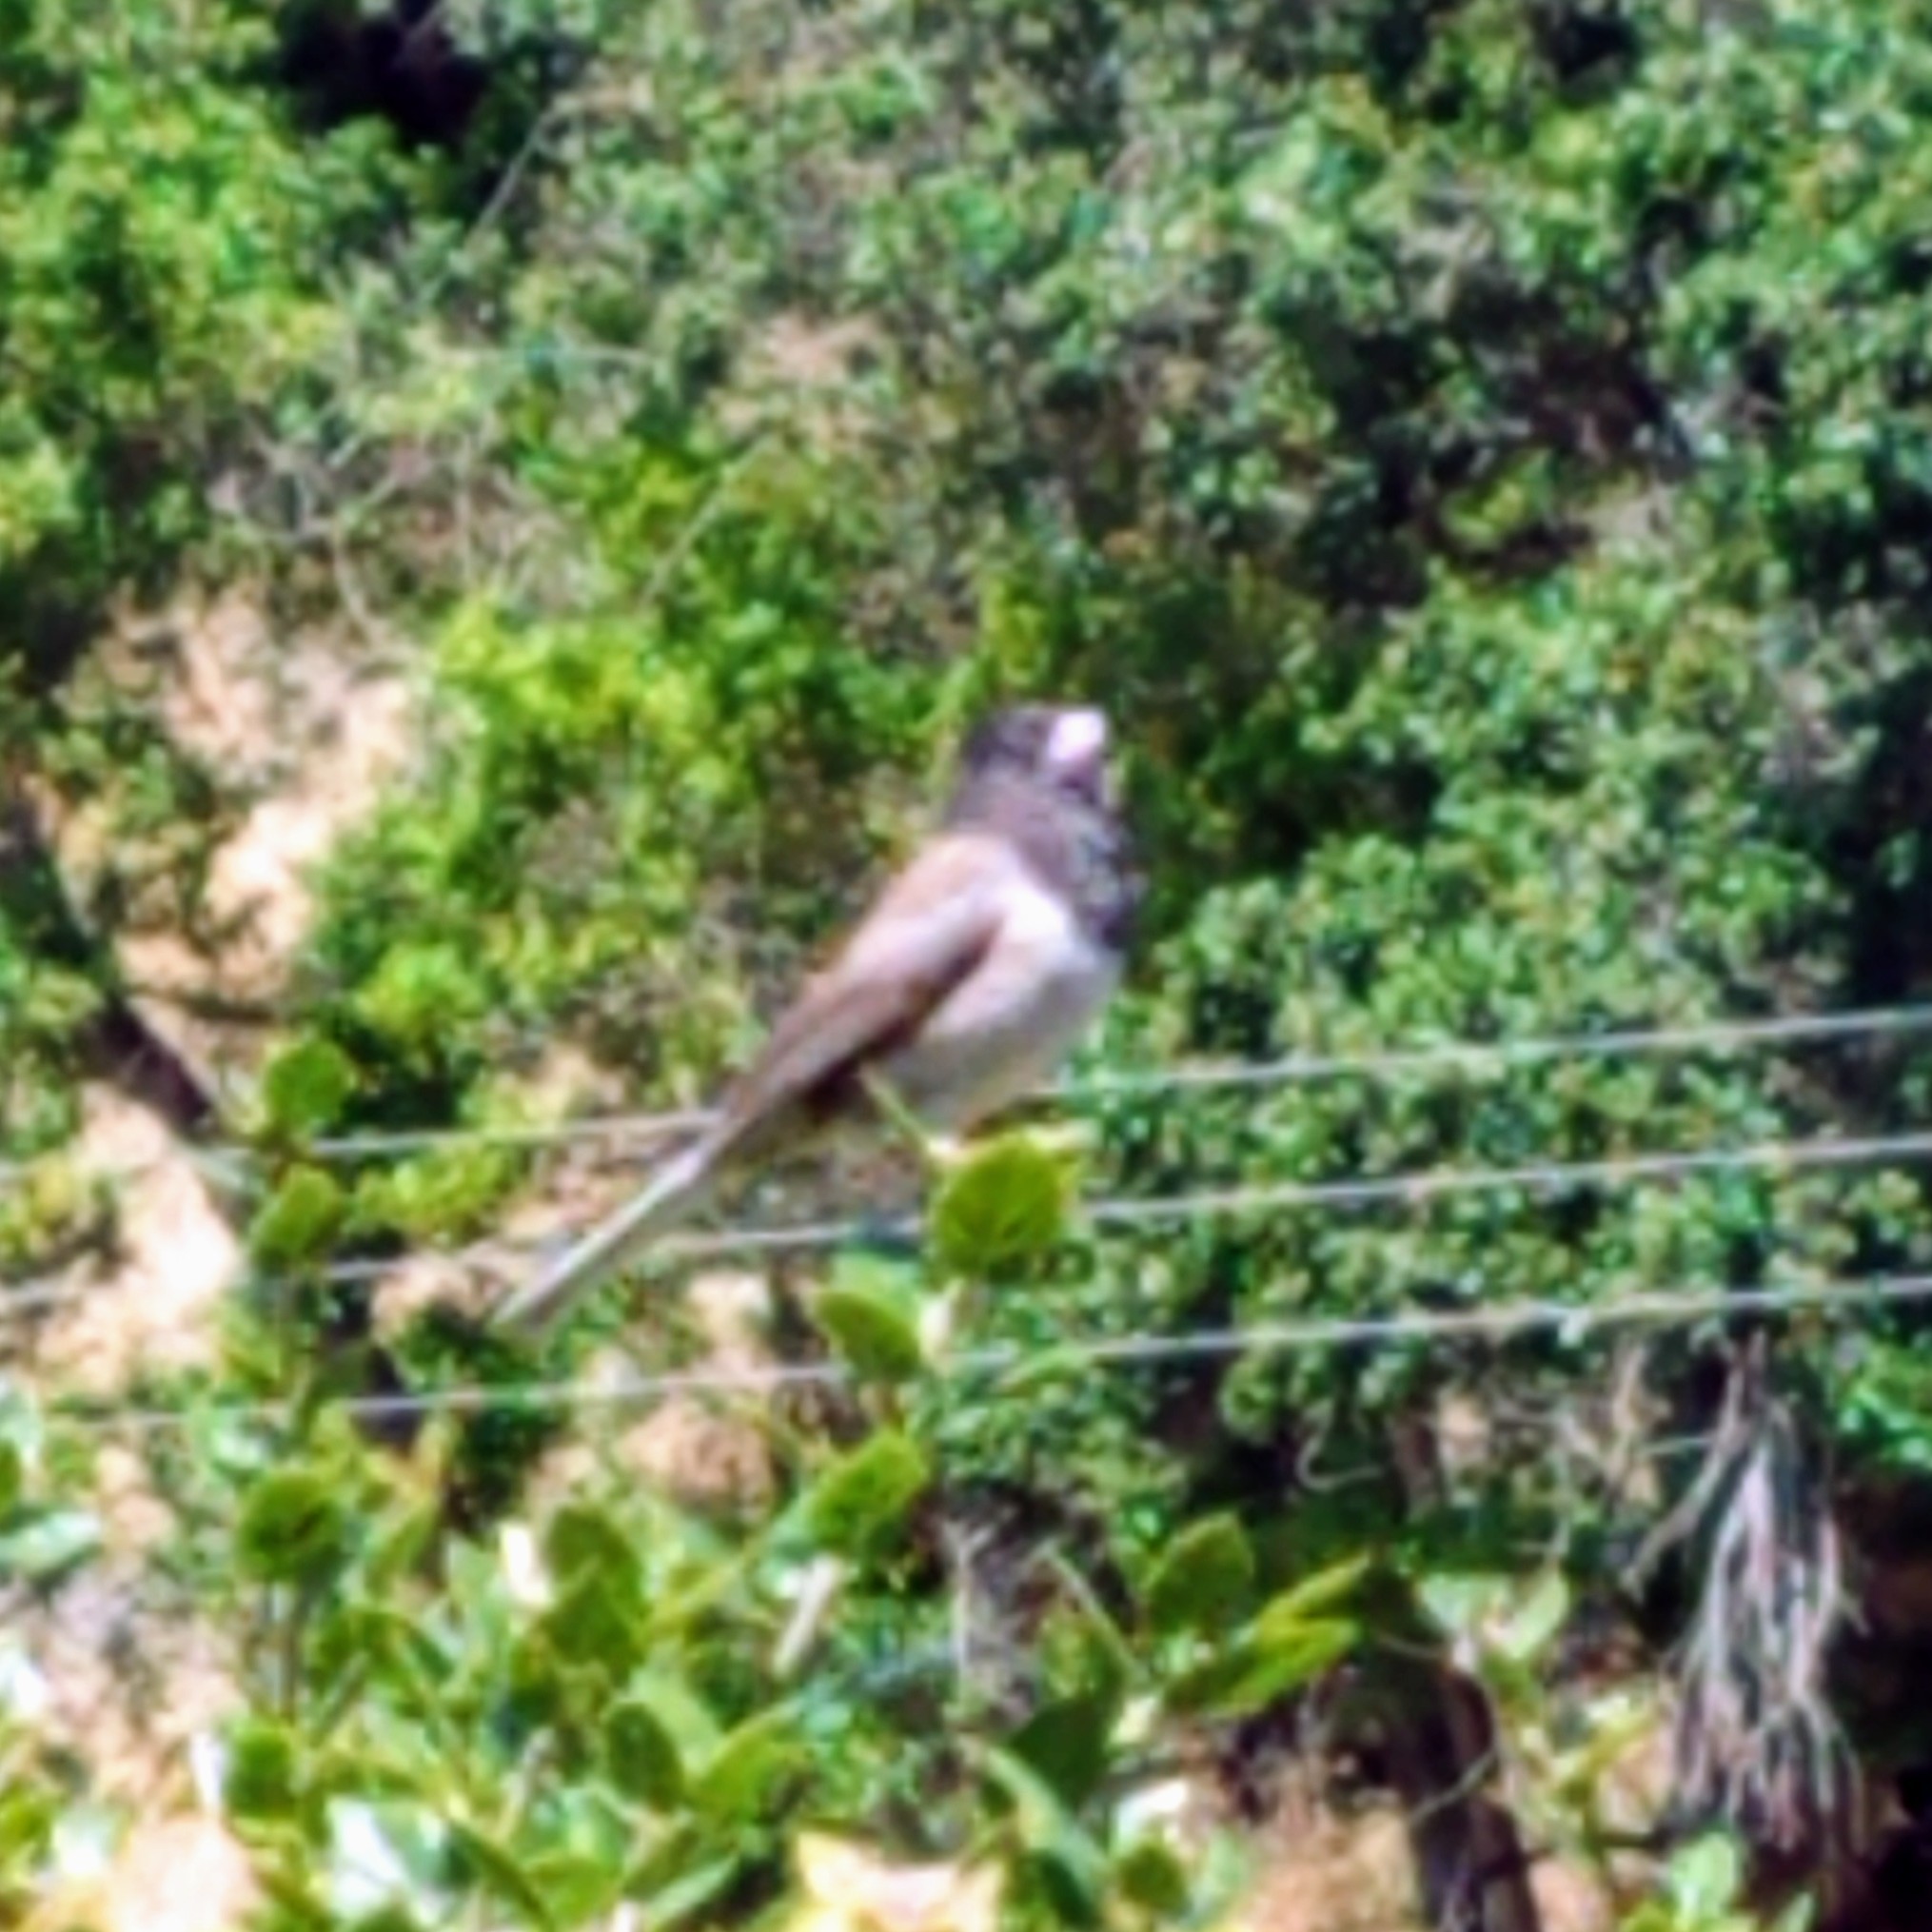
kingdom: Animalia
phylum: Chordata
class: Aves
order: Passeriformes
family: Passerellidae
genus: Junco
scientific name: Junco hyemalis
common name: Dark-eyed junco
